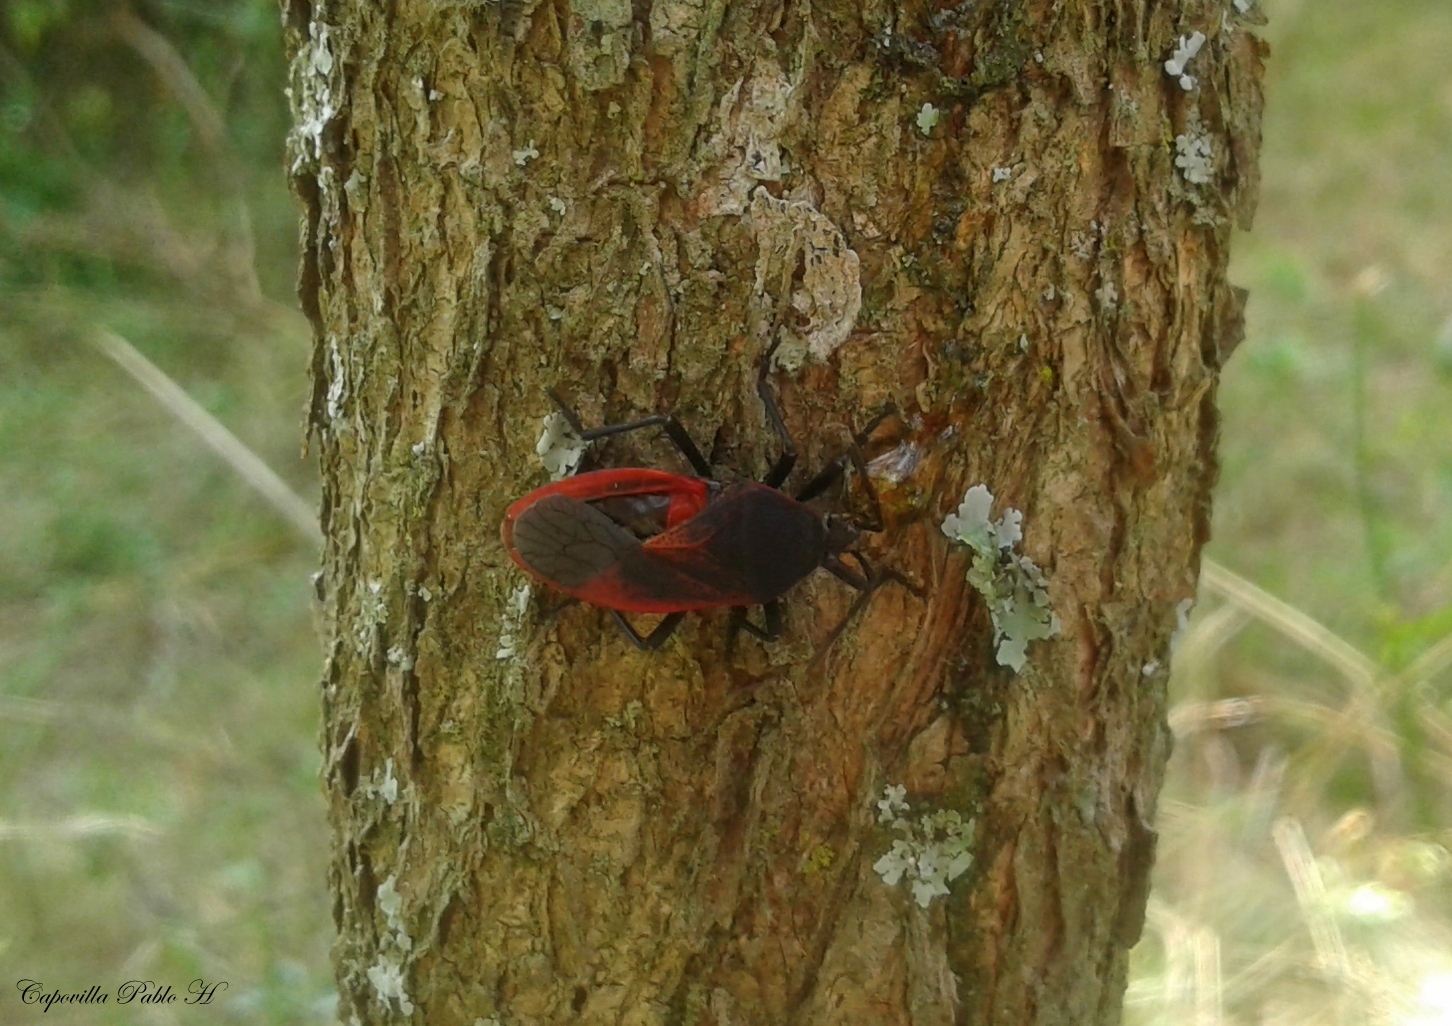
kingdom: Animalia
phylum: Arthropoda
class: Insecta
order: Hemiptera
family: Largidae
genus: Largus
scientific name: Largus rufipennis
